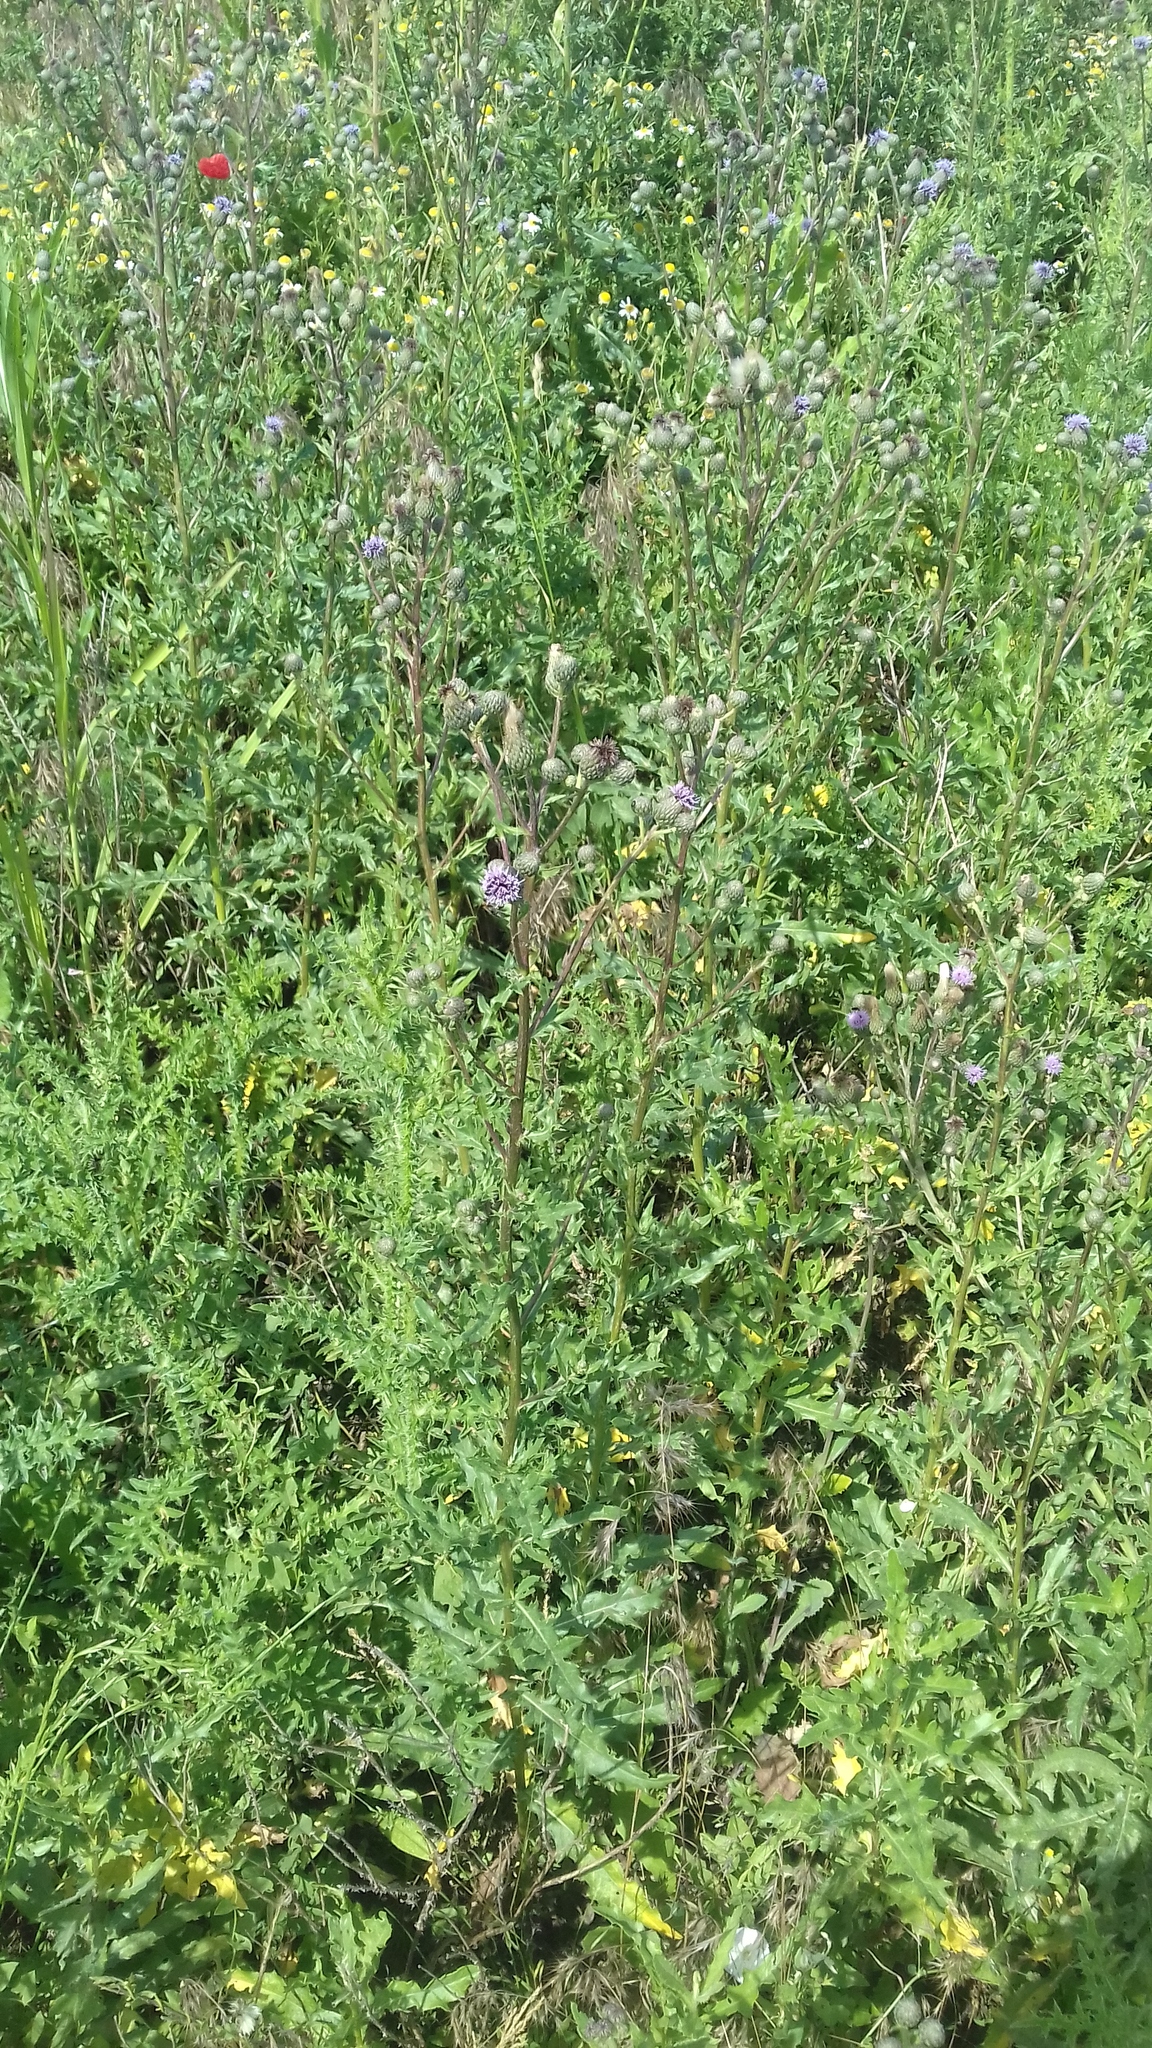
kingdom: Plantae
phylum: Tracheophyta
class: Magnoliopsida
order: Asterales
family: Asteraceae
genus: Cirsium
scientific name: Cirsium arvense
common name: Creeping thistle
